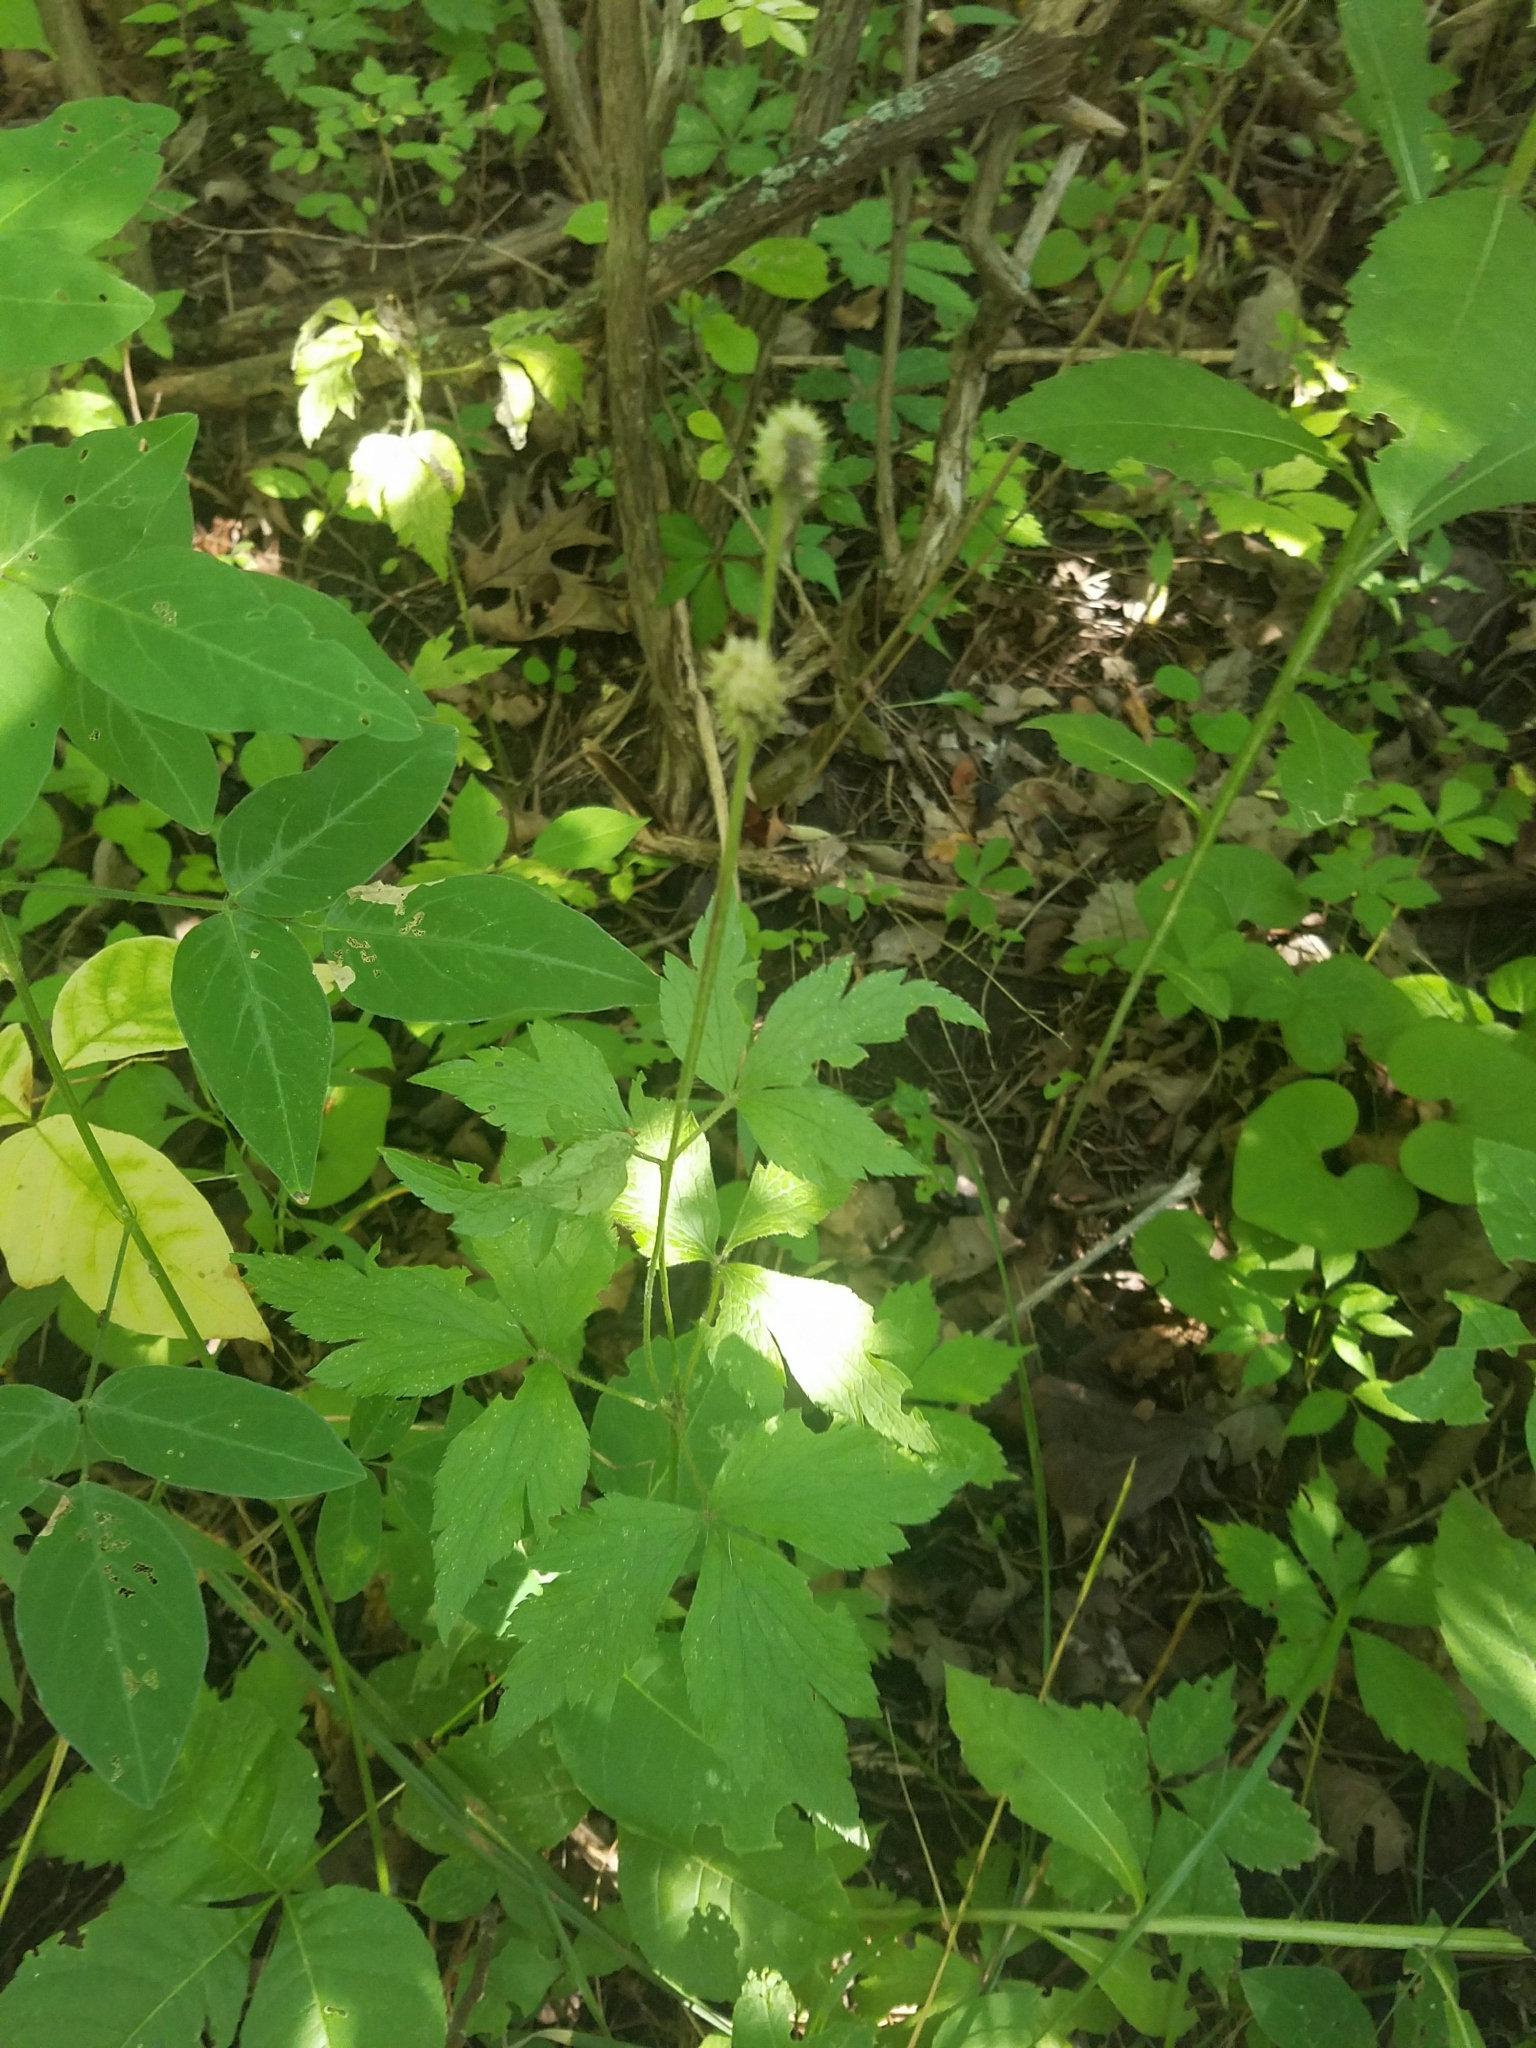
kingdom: Plantae
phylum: Tracheophyta
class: Magnoliopsida
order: Ranunculales
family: Ranunculaceae
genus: Anemone
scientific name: Anemone virginiana
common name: Tall anemone
